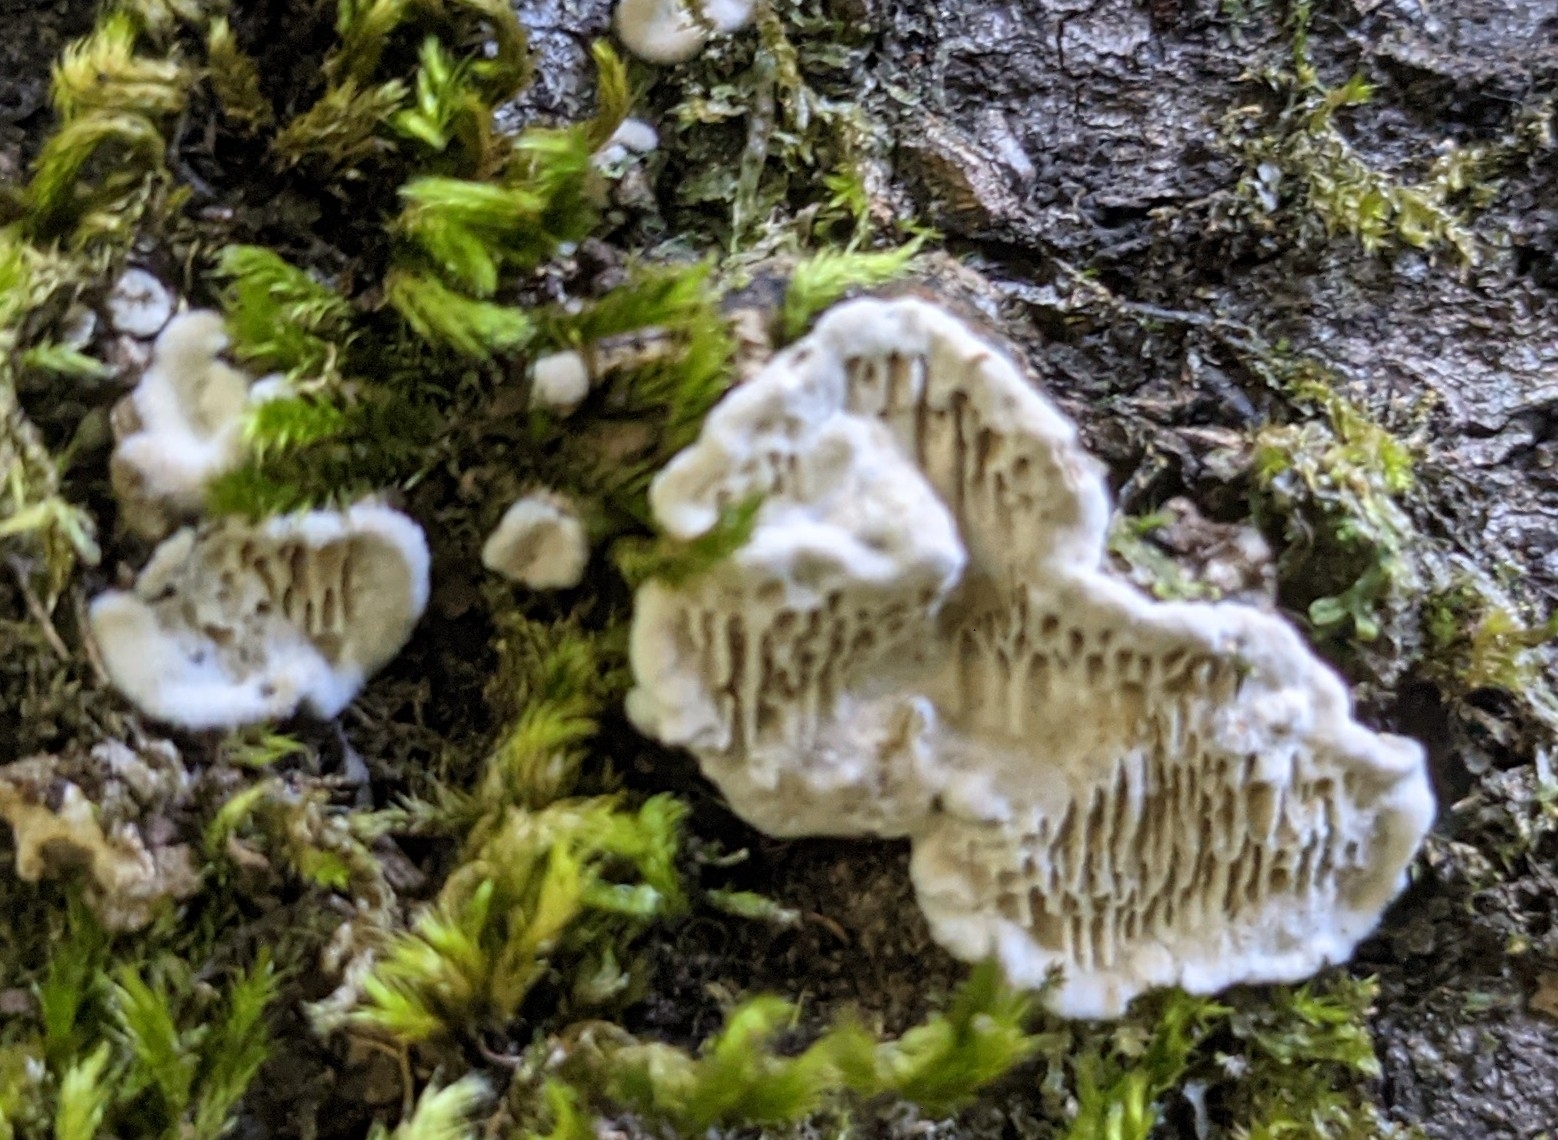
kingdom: Fungi
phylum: Basidiomycota
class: Agaricomycetes
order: Polyporales
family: Polyporaceae
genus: Podofomes
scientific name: Podofomes mollis
